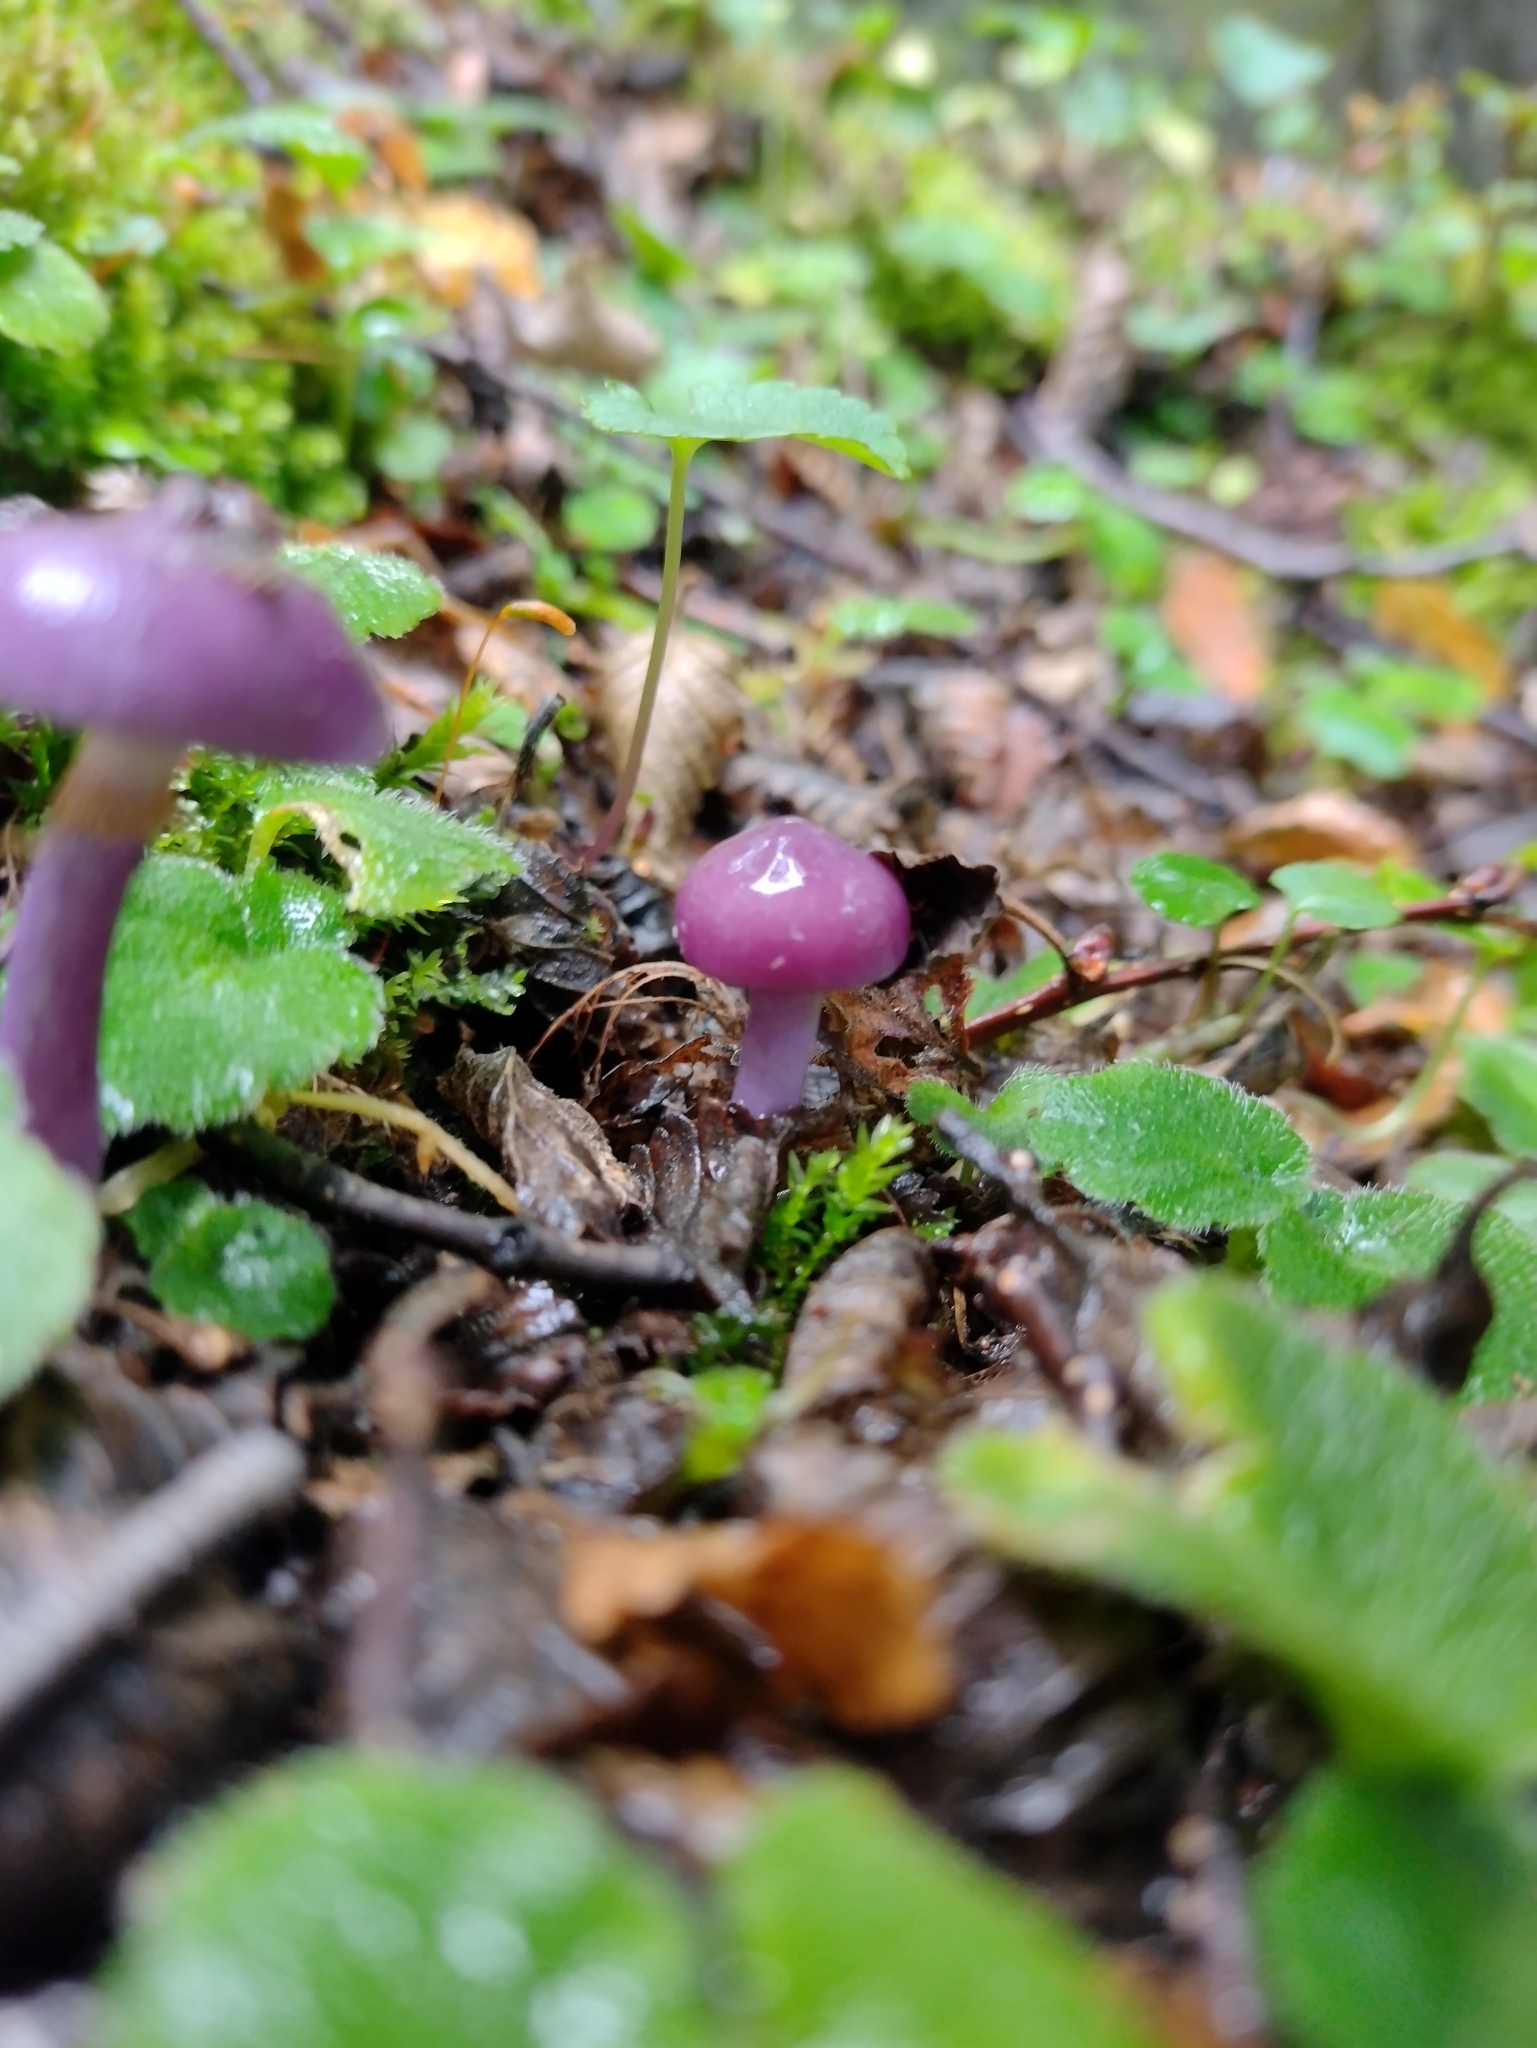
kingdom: Fungi
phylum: Basidiomycota
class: Agaricomycetes
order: Agaricales
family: Cortinariaceae
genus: Cortinarius
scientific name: Cortinarius magellanicus
